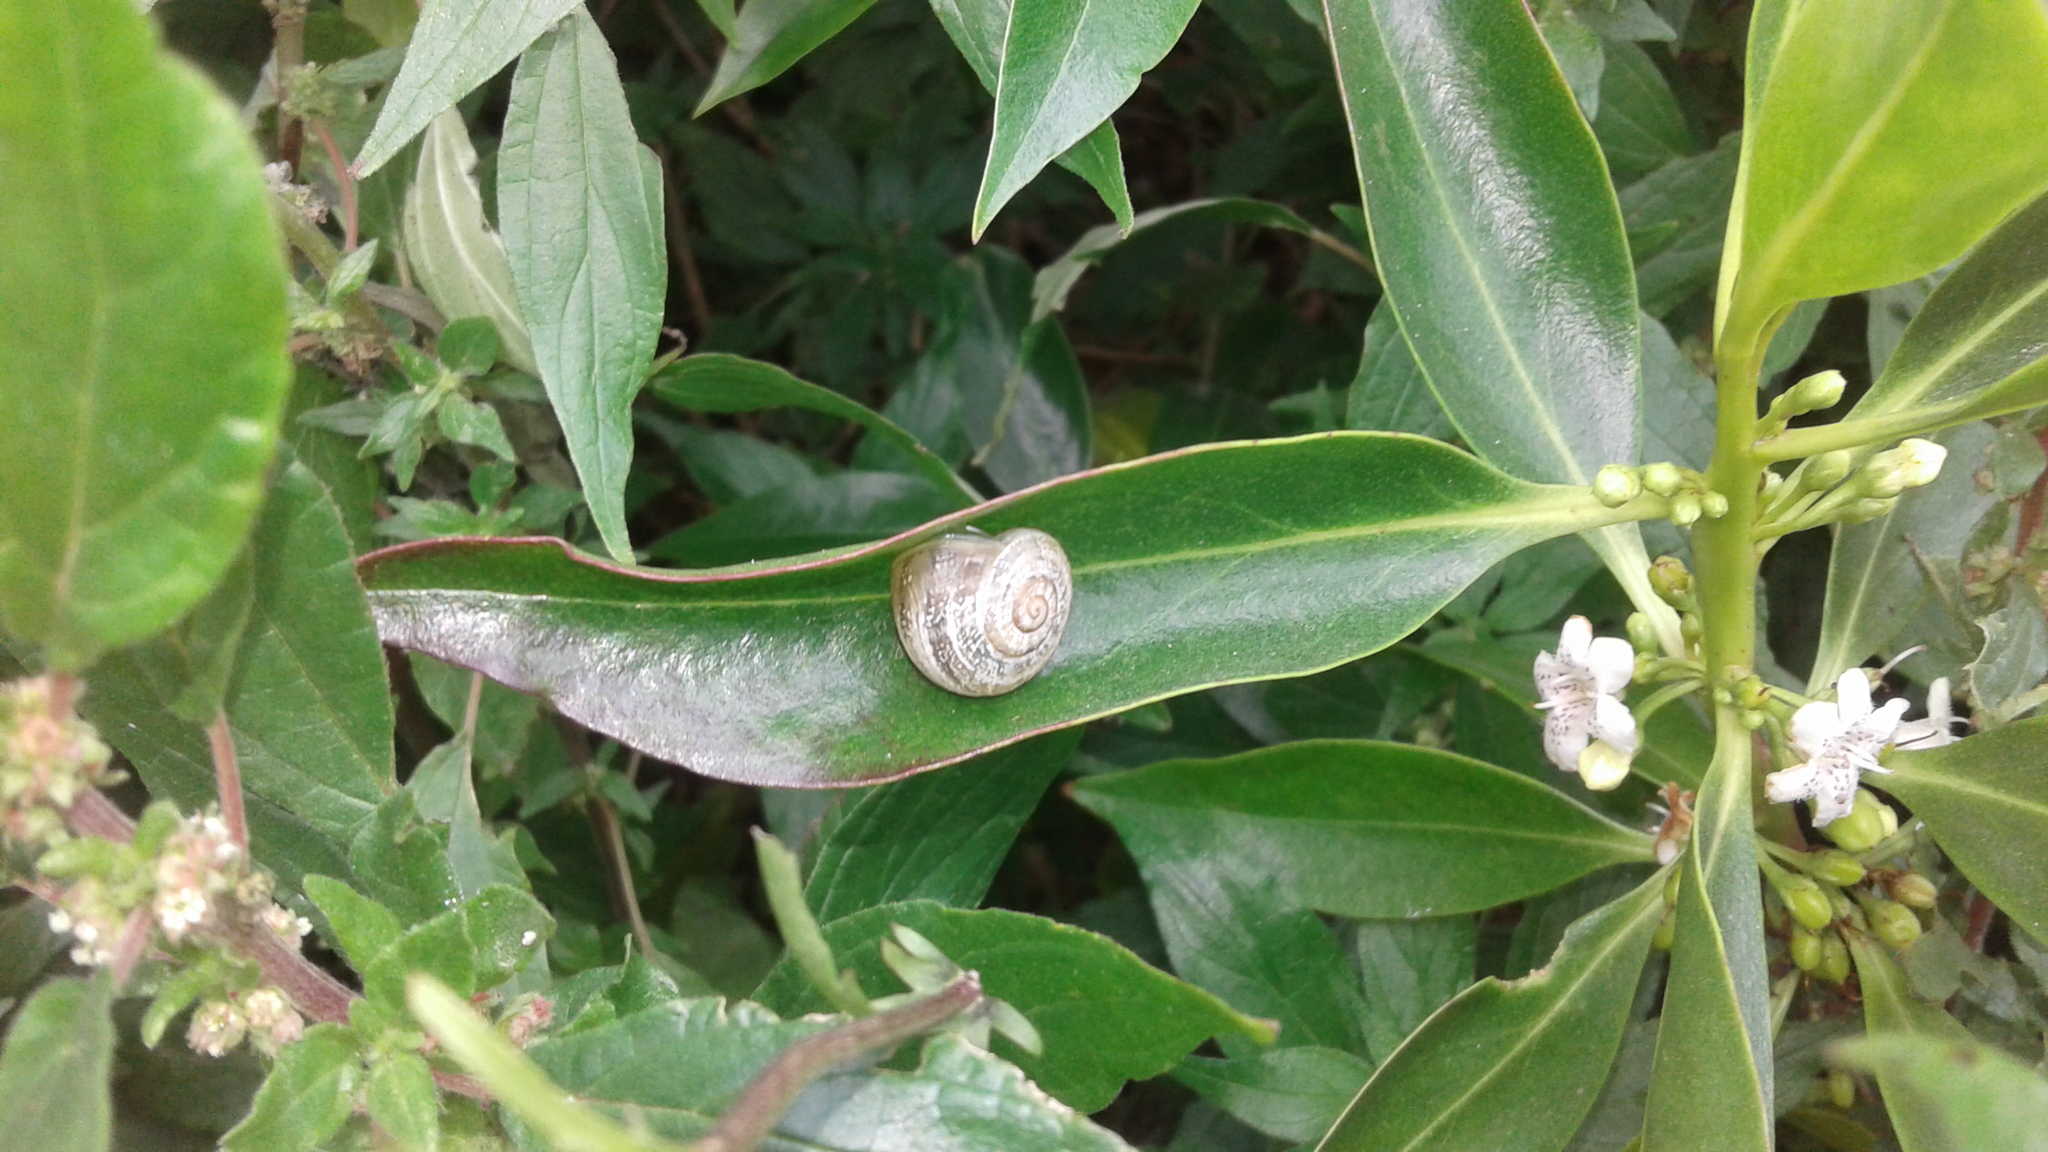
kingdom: Plantae
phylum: Tracheophyta
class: Magnoliopsida
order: Lamiales
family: Scrophulariaceae
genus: Myoporum
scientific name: Myoporum laetum
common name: Ngaio tree
